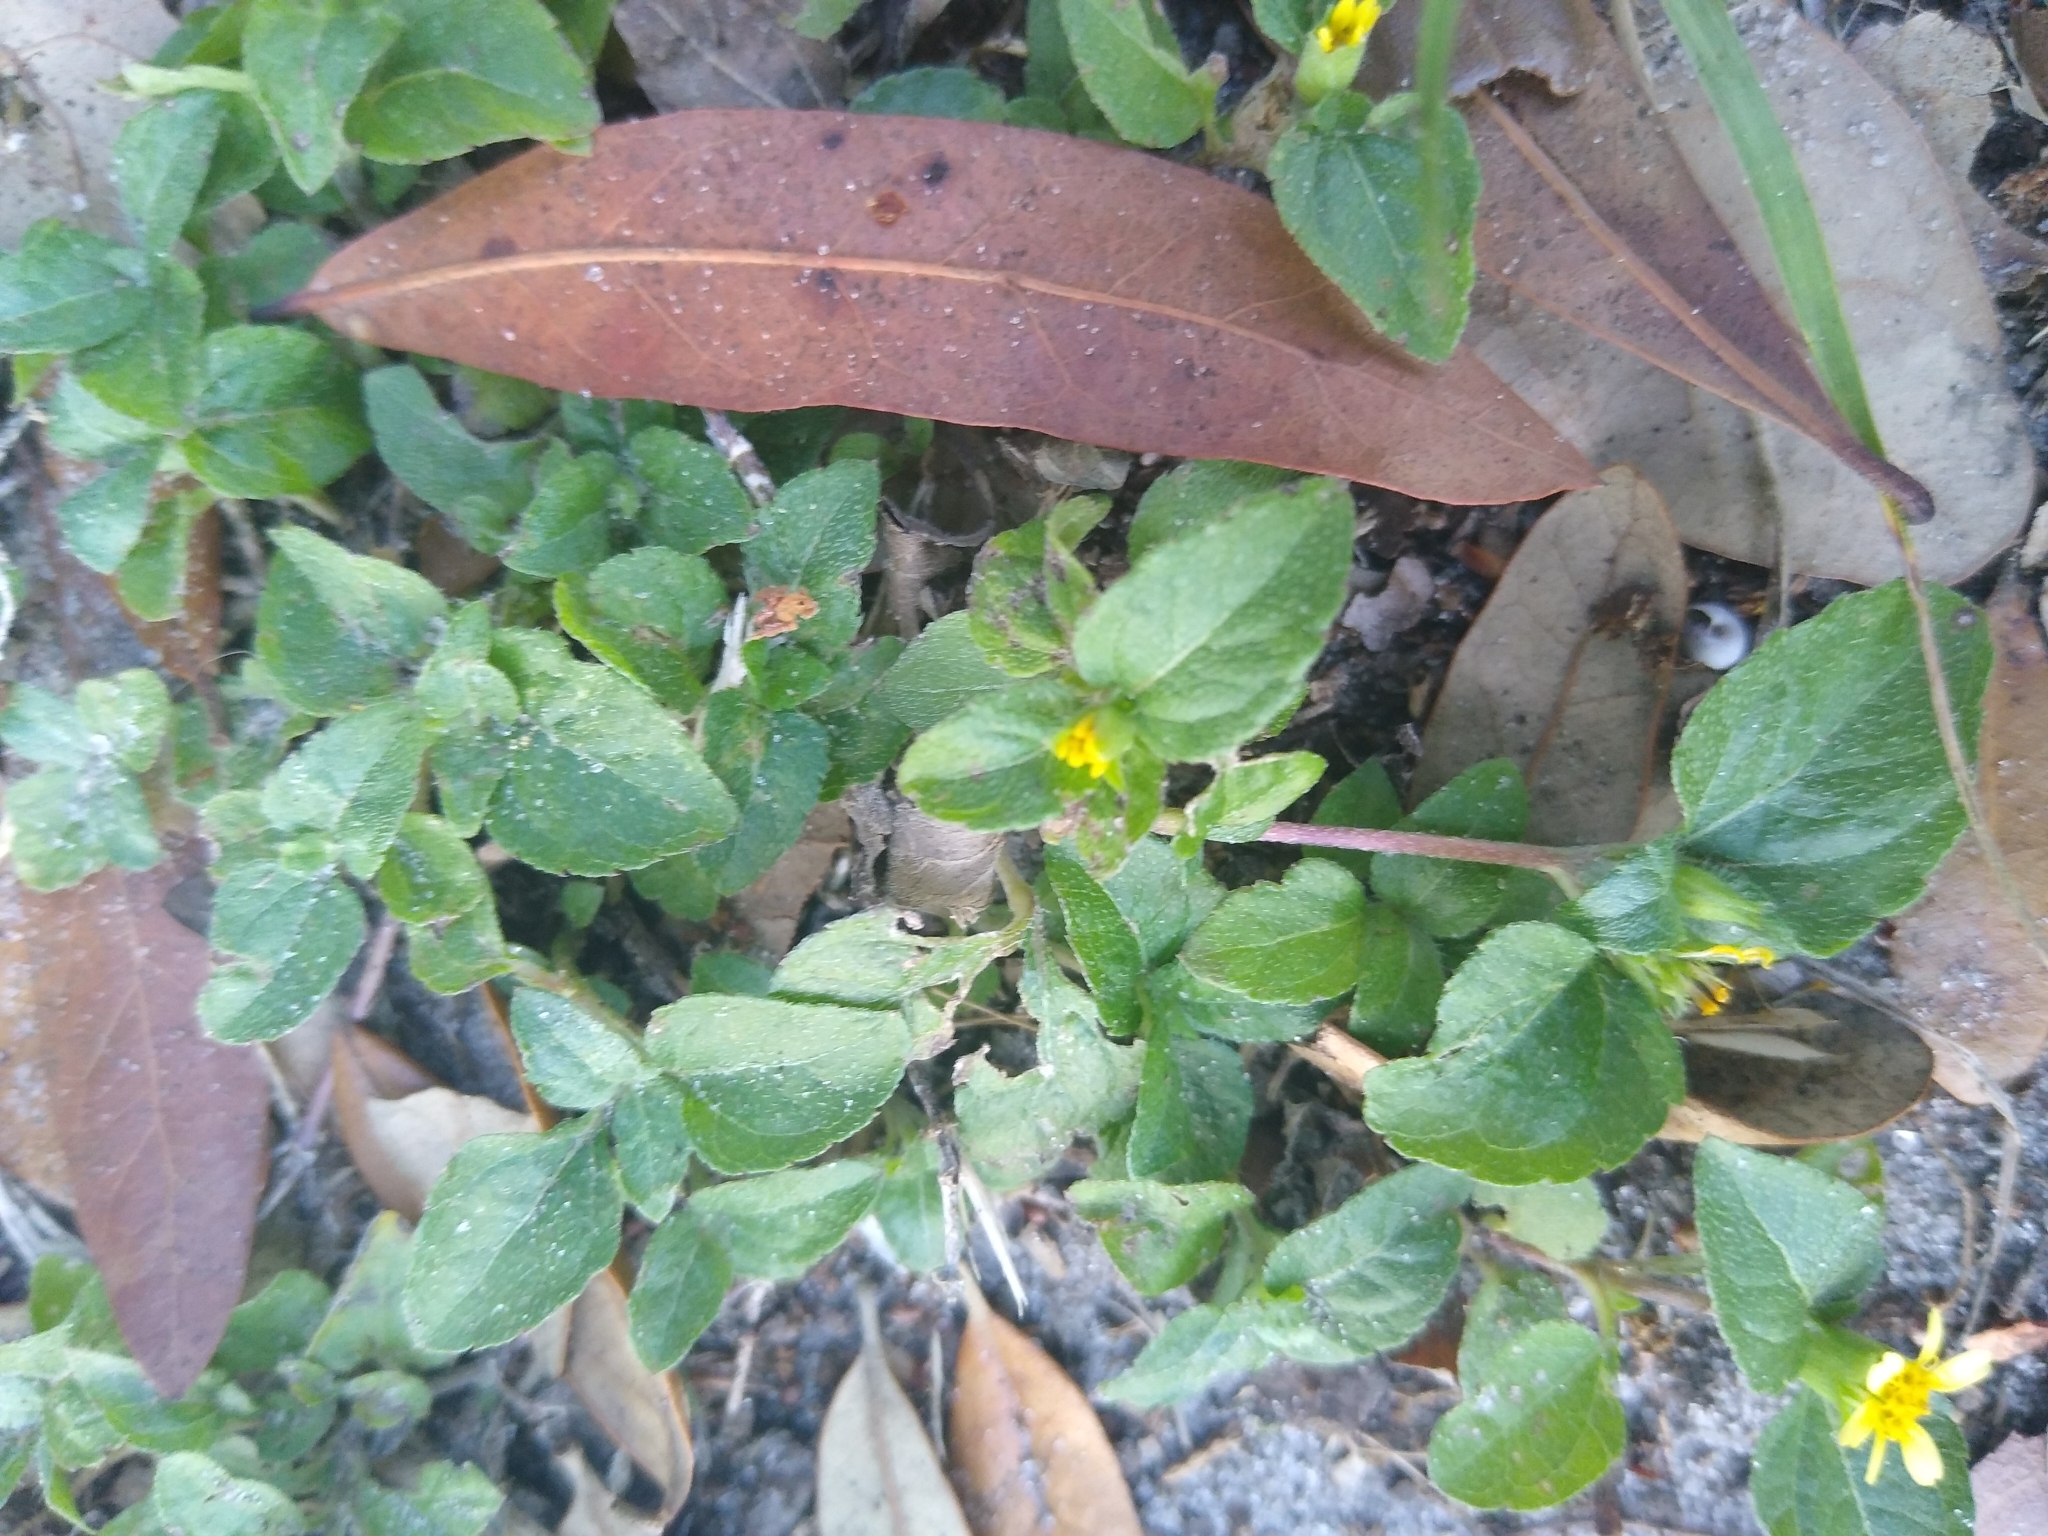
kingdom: Plantae
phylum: Tracheophyta
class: Magnoliopsida
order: Asterales
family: Asteraceae
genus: Calyptocarpus
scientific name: Calyptocarpus vialis
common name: Straggler daisy
